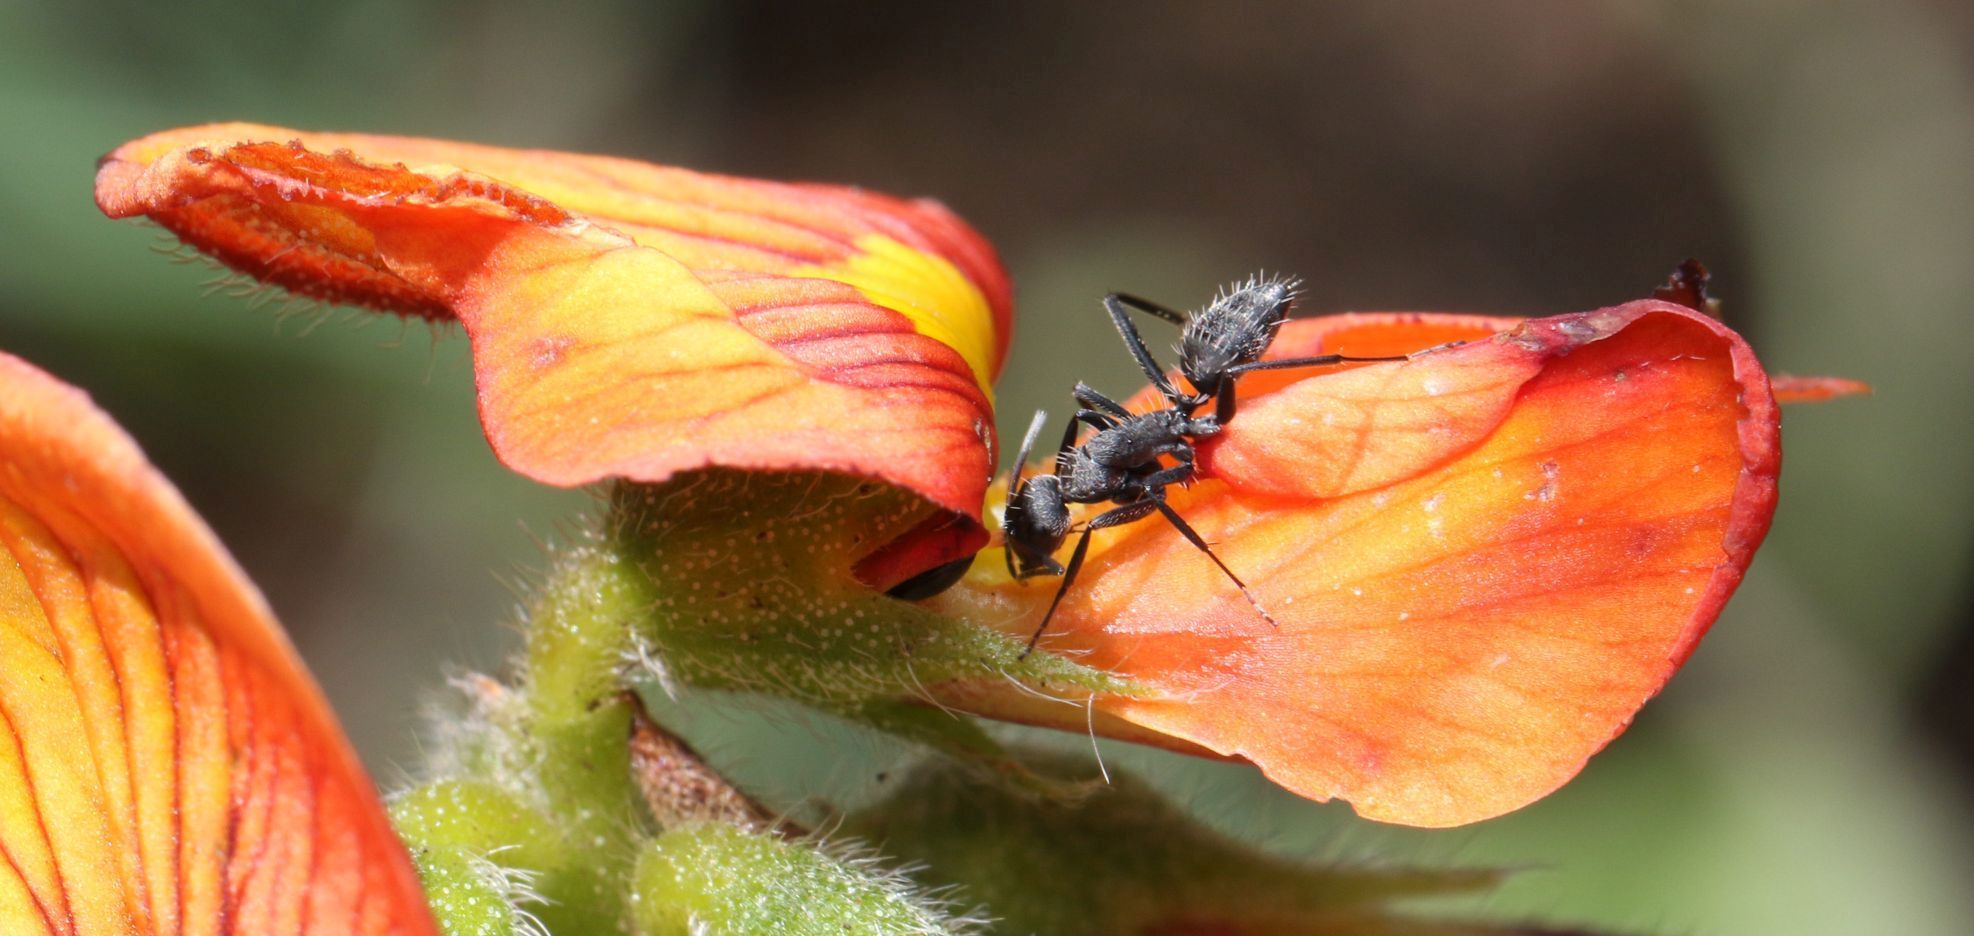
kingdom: Animalia
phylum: Arthropoda
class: Insecta
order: Hymenoptera
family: Formicidae
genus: Camponotus
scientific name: Camponotus niveosetosus
